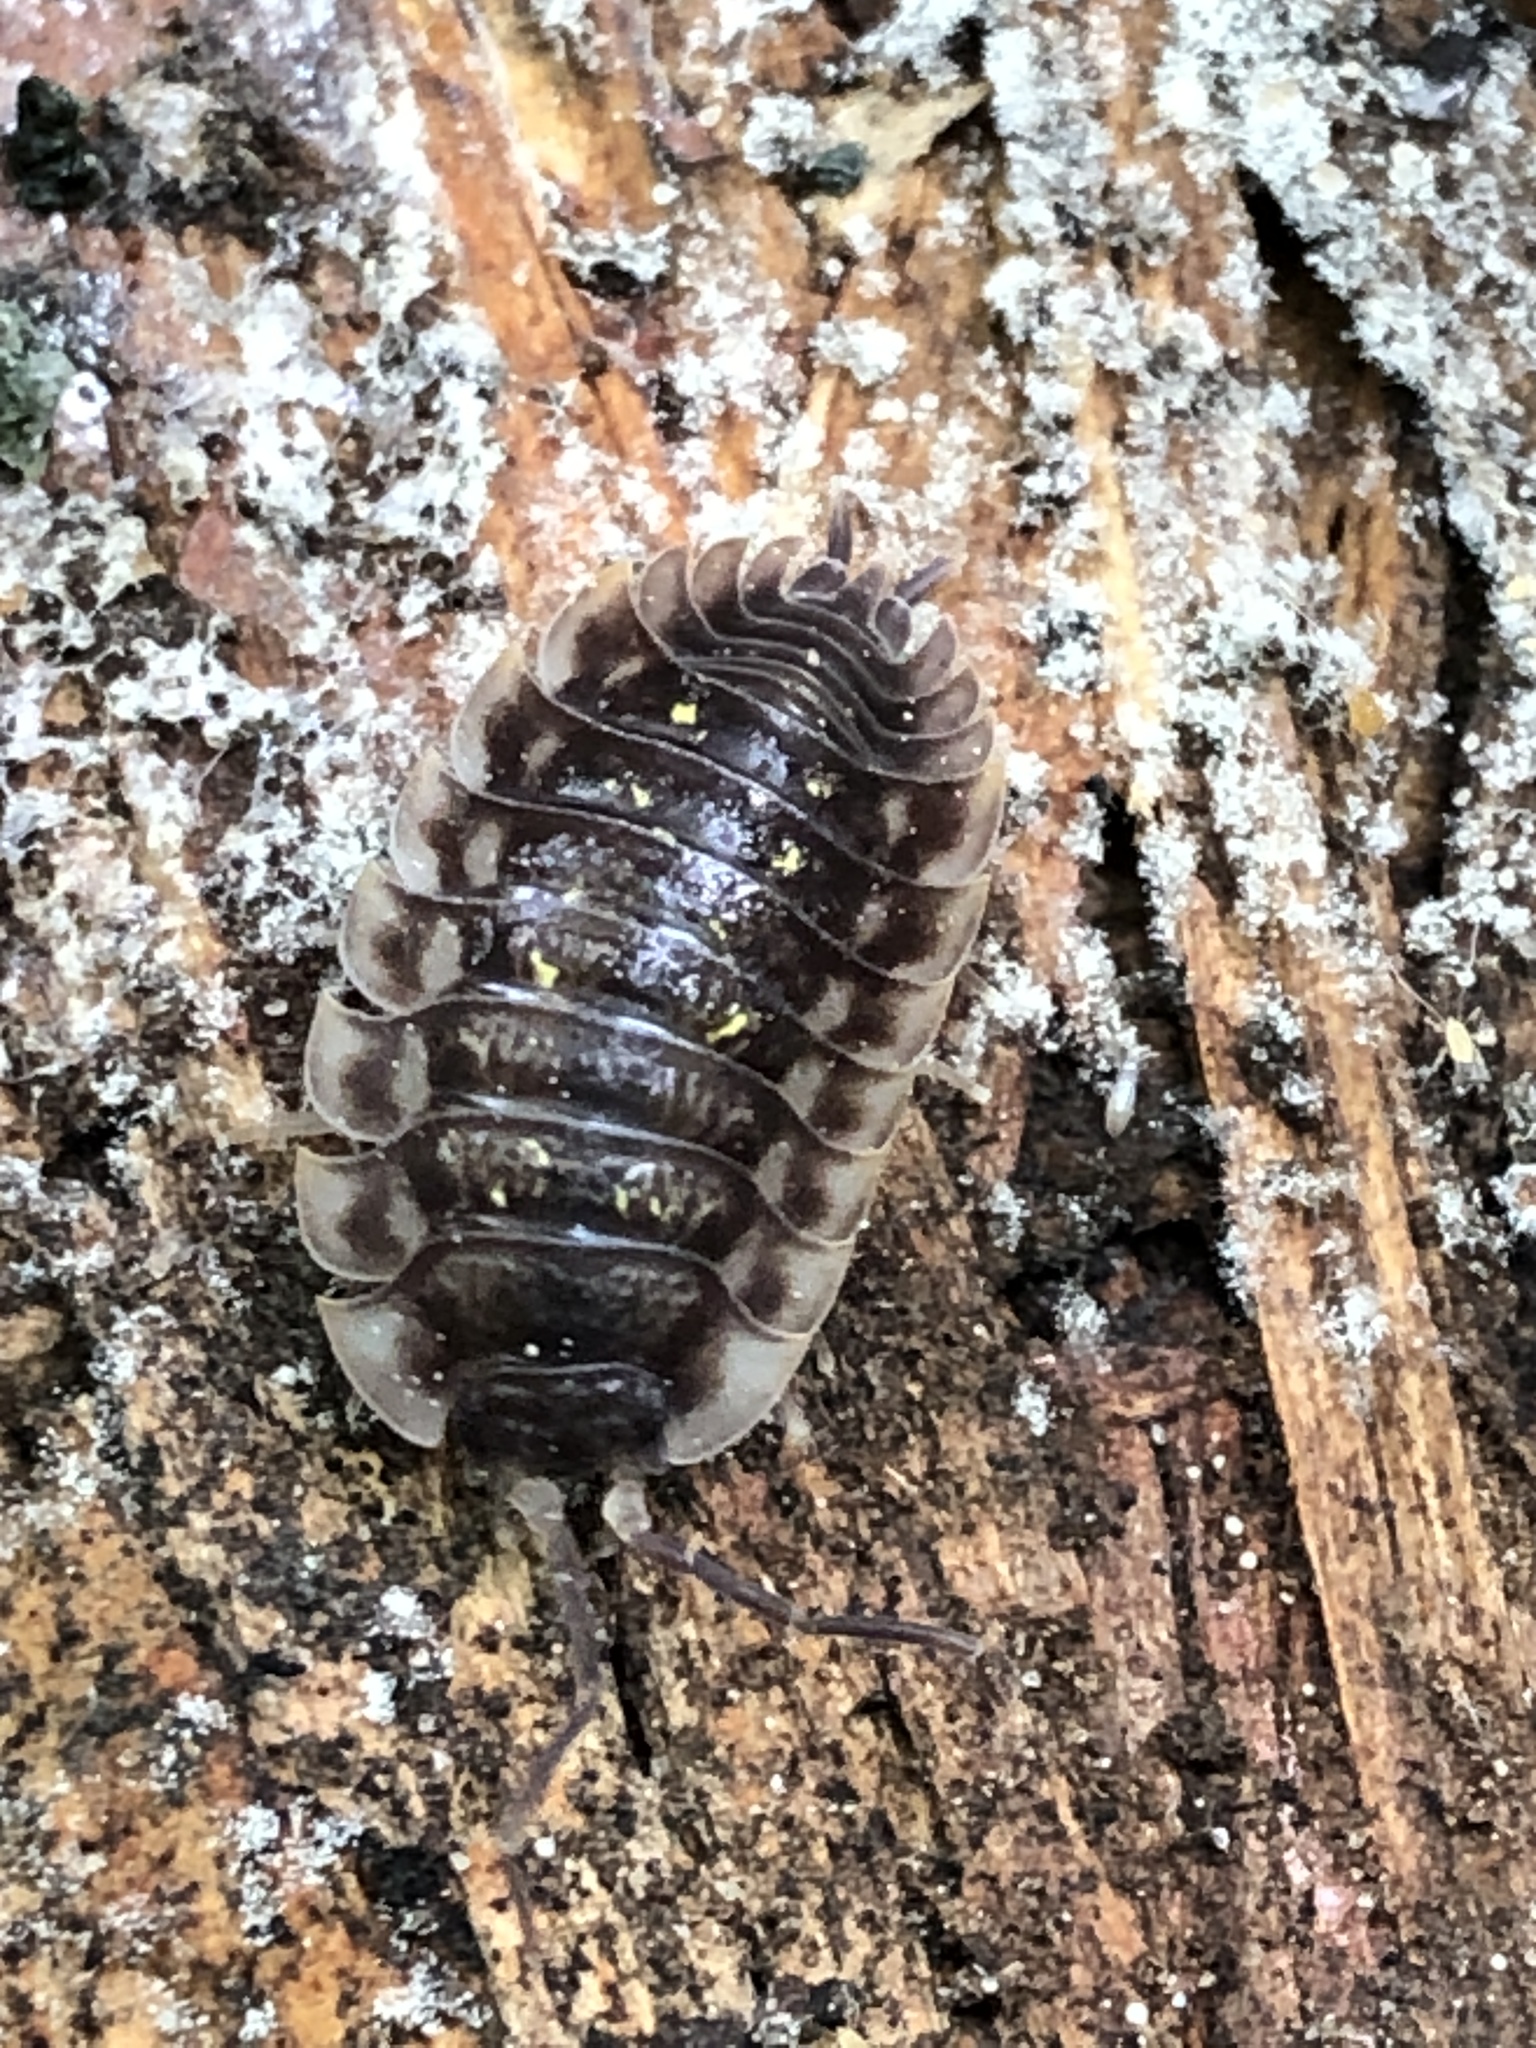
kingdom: Animalia
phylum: Arthropoda
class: Malacostraca
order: Isopoda
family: Oniscidae
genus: Oniscus
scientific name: Oniscus asellus
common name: Common shiny woodlouse
